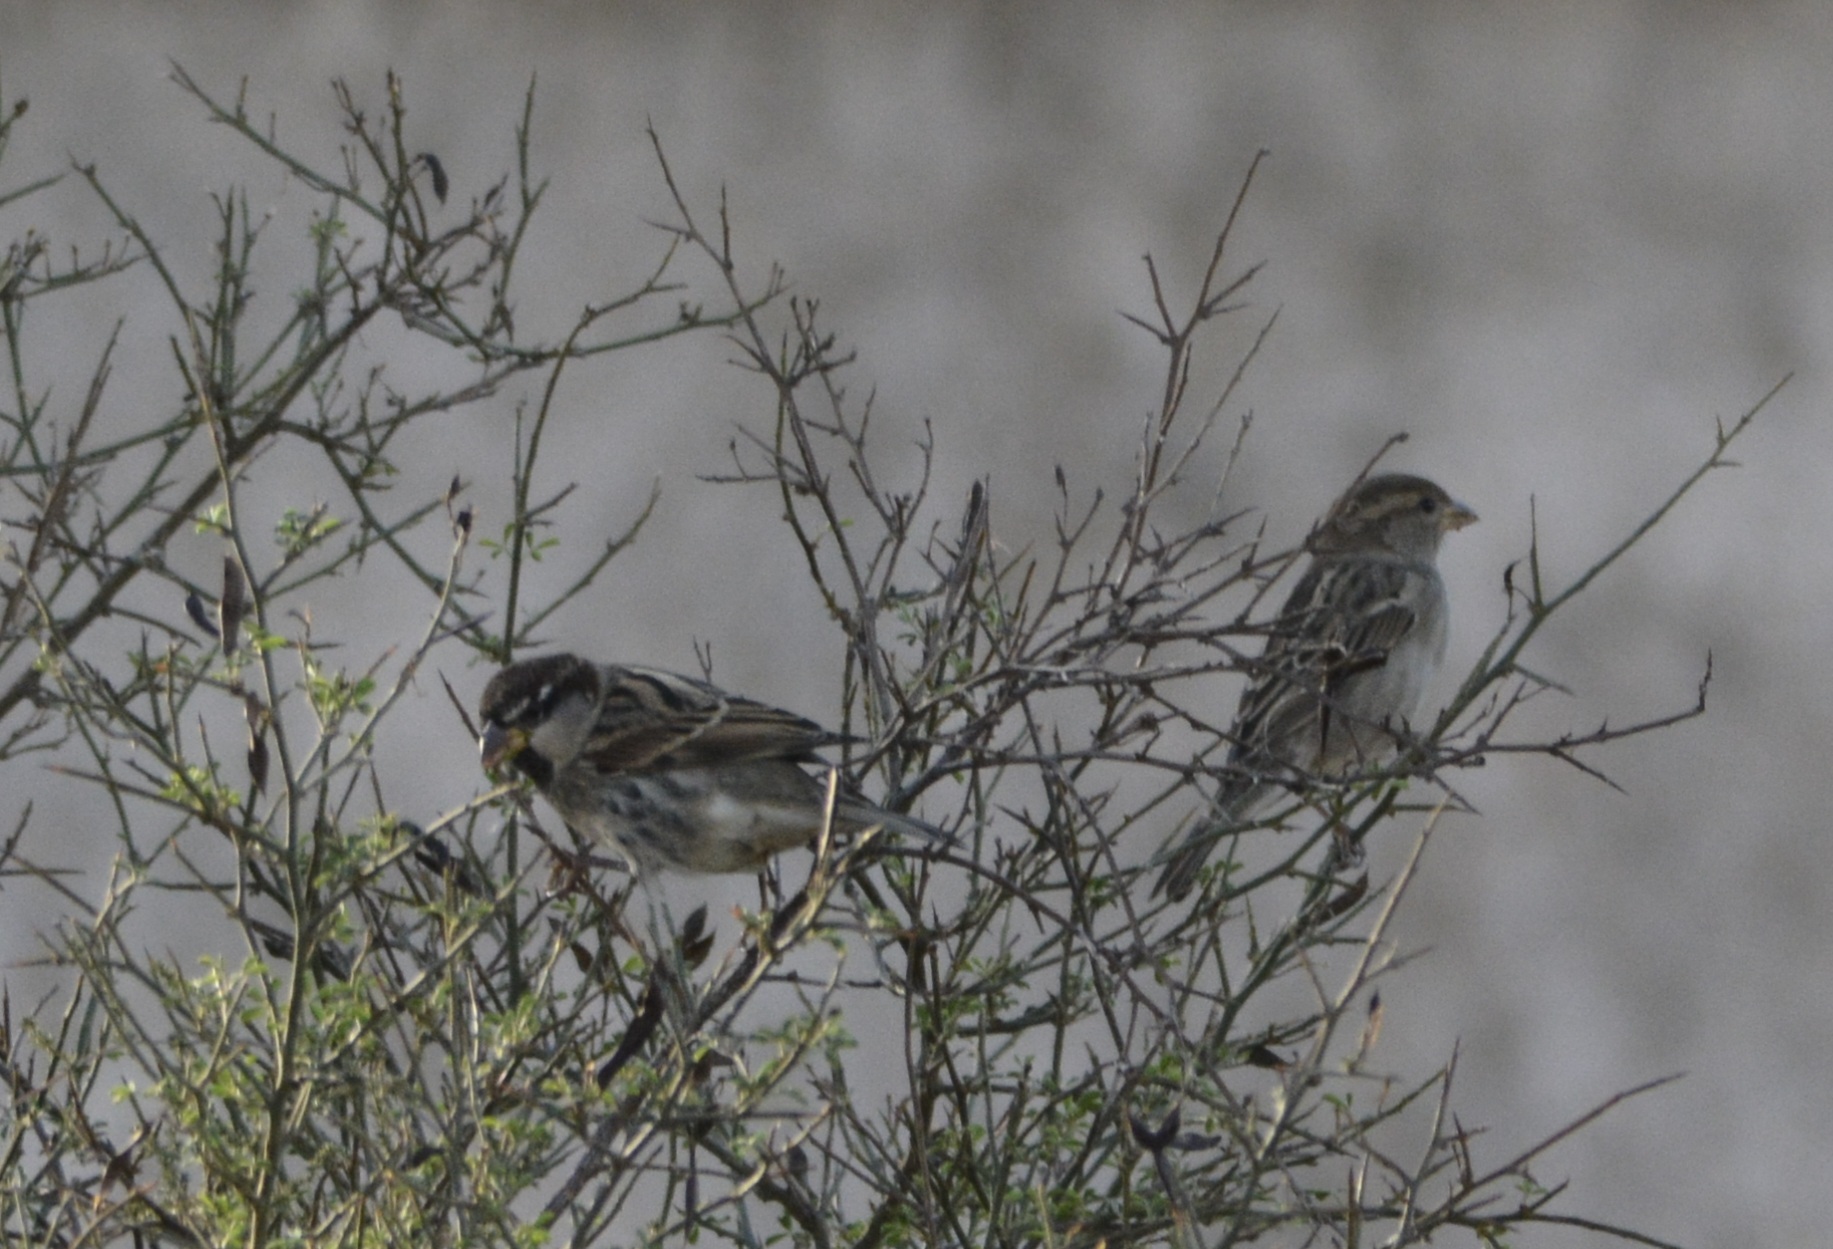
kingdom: Animalia
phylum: Chordata
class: Aves
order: Passeriformes
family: Passeridae
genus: Passer
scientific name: Passer hispaniolensis
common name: Spanish sparrow
